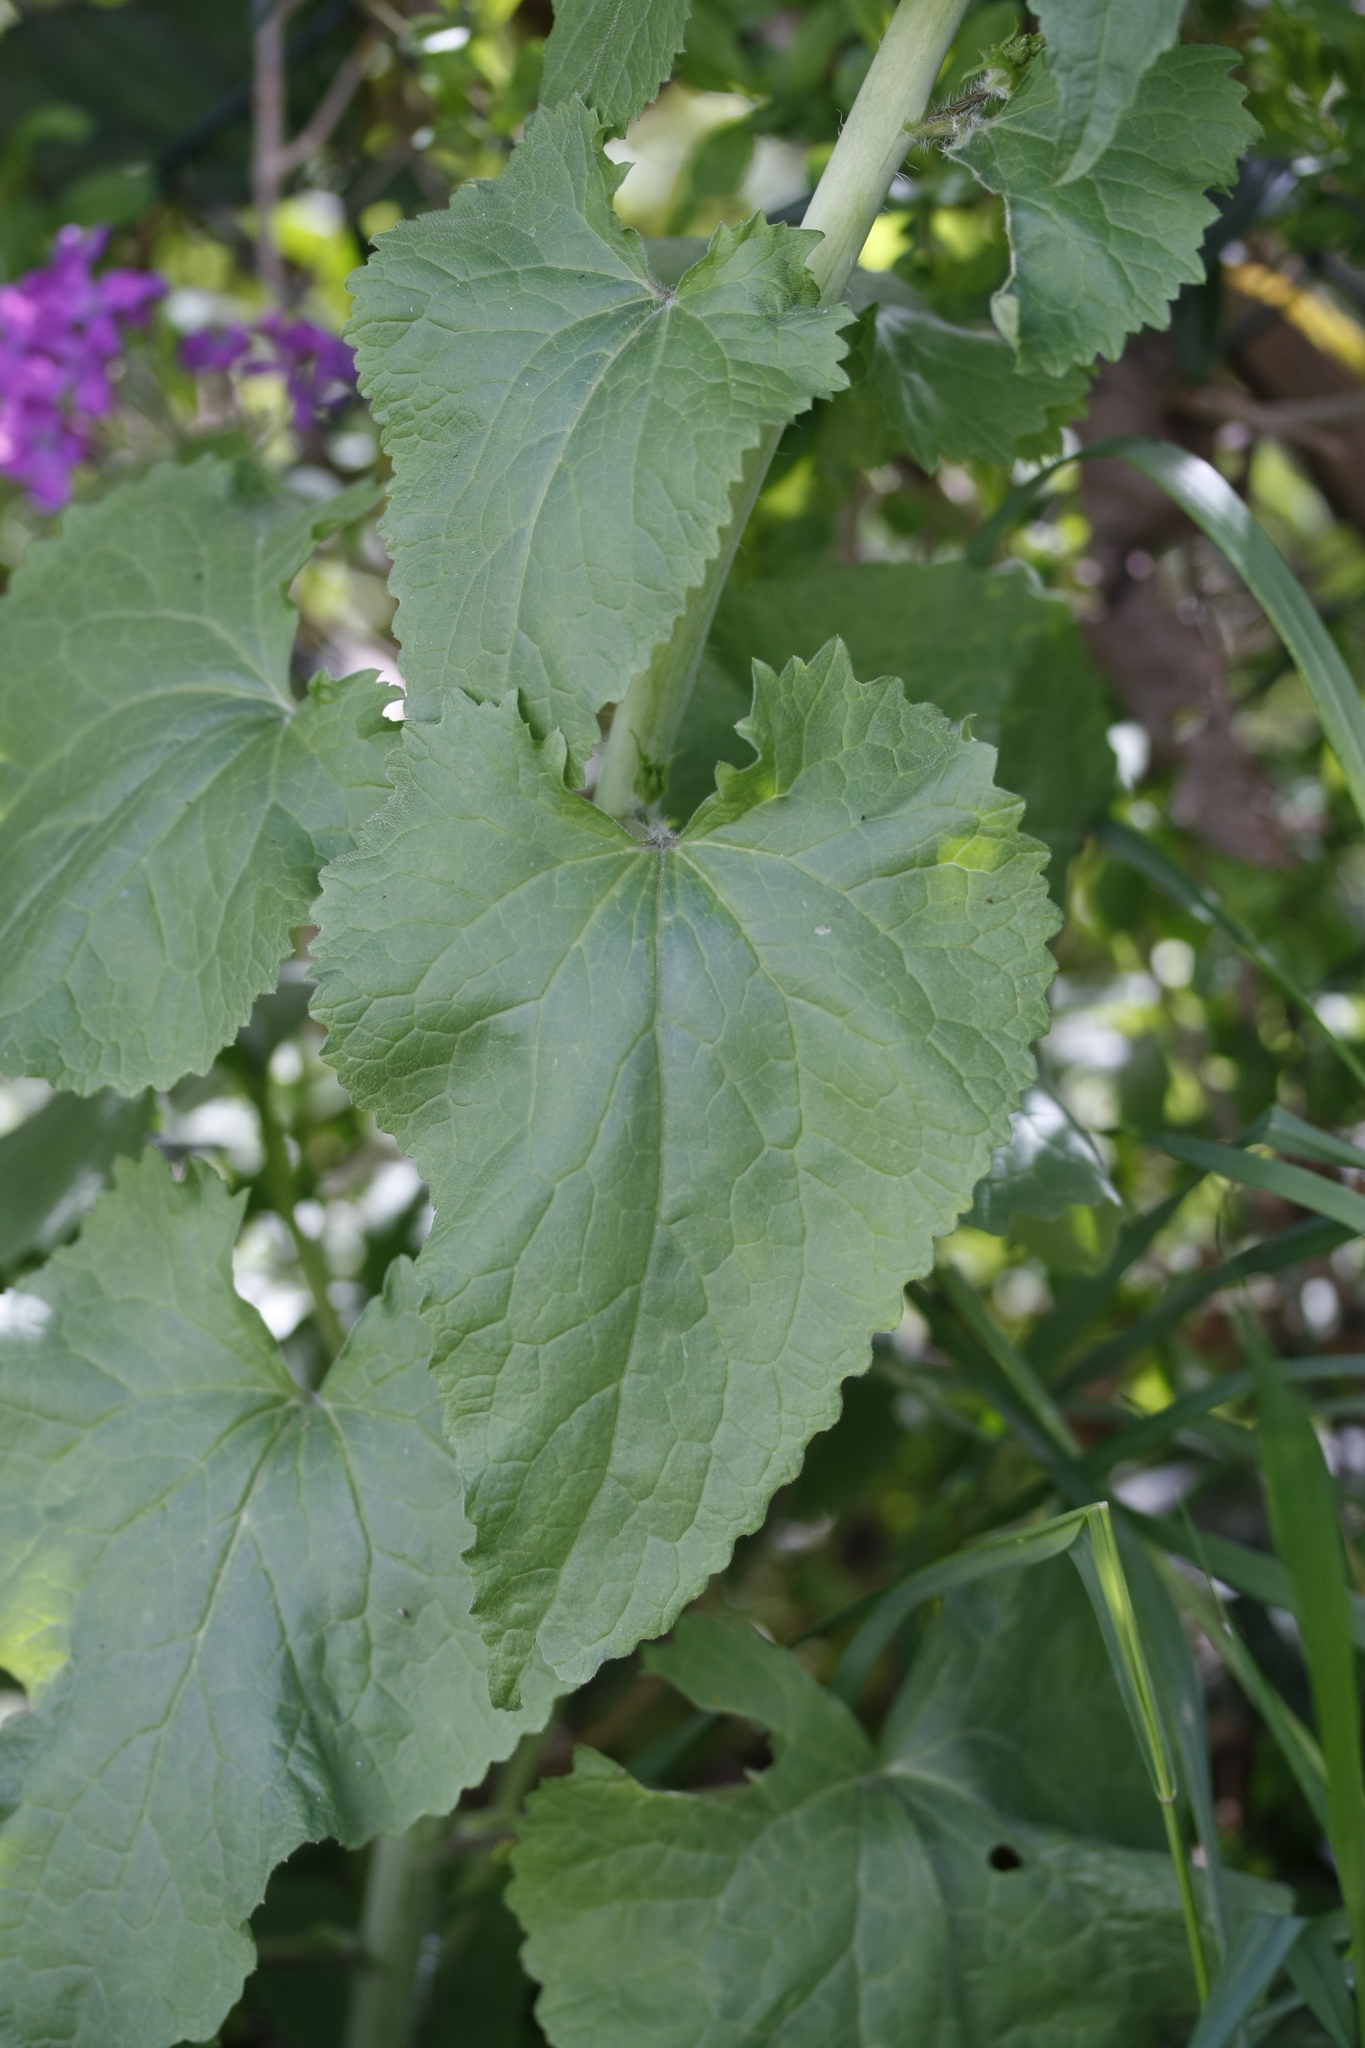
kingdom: Plantae
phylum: Tracheophyta
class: Magnoliopsida
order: Brassicales
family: Brassicaceae
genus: Lunaria
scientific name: Lunaria annua
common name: Honesty
